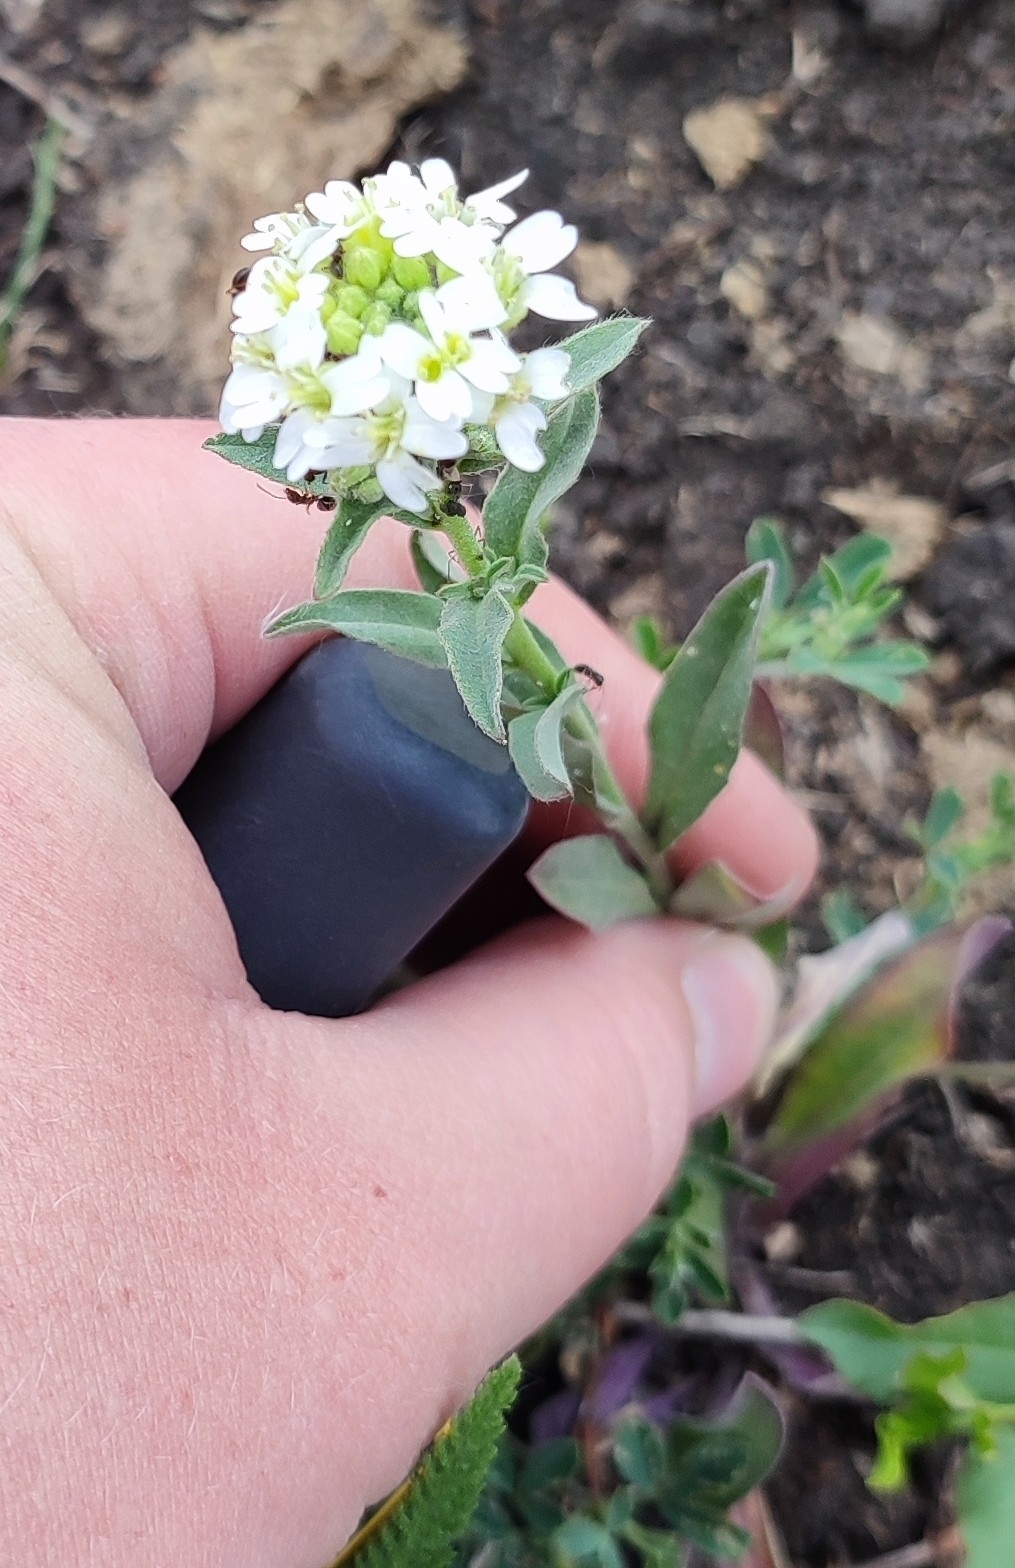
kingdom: Plantae
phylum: Tracheophyta
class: Magnoliopsida
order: Brassicales
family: Brassicaceae
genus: Berteroa
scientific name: Berteroa incana
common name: Hoary alison
